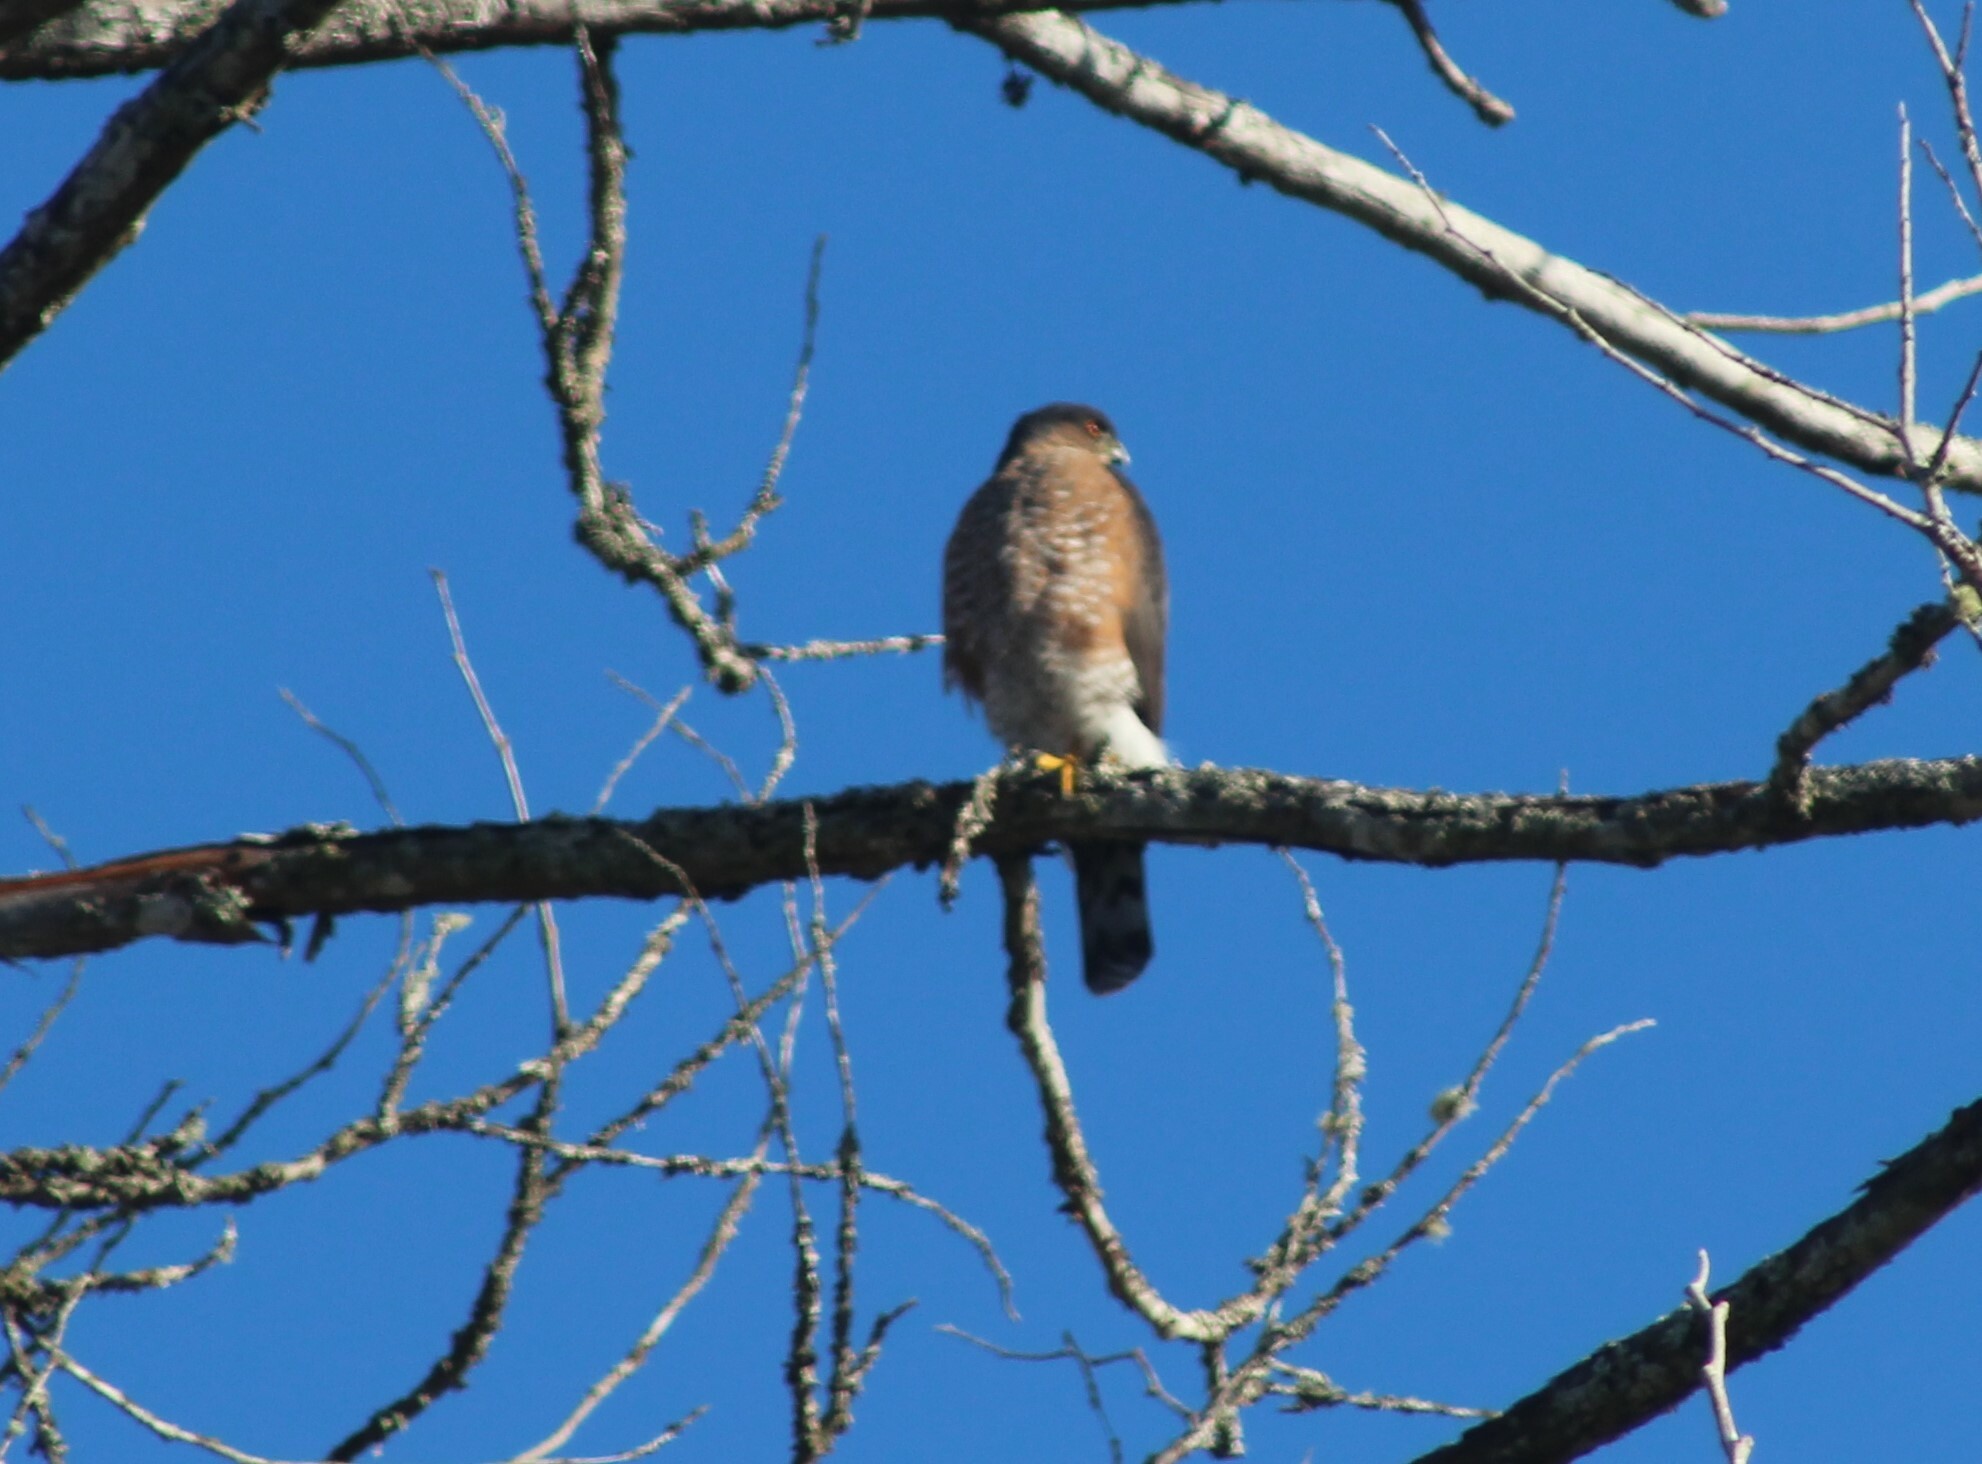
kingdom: Animalia
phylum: Chordata
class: Aves
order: Accipitriformes
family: Accipitridae
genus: Accipiter
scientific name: Accipiter striatus
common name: Sharp-shinned hawk
